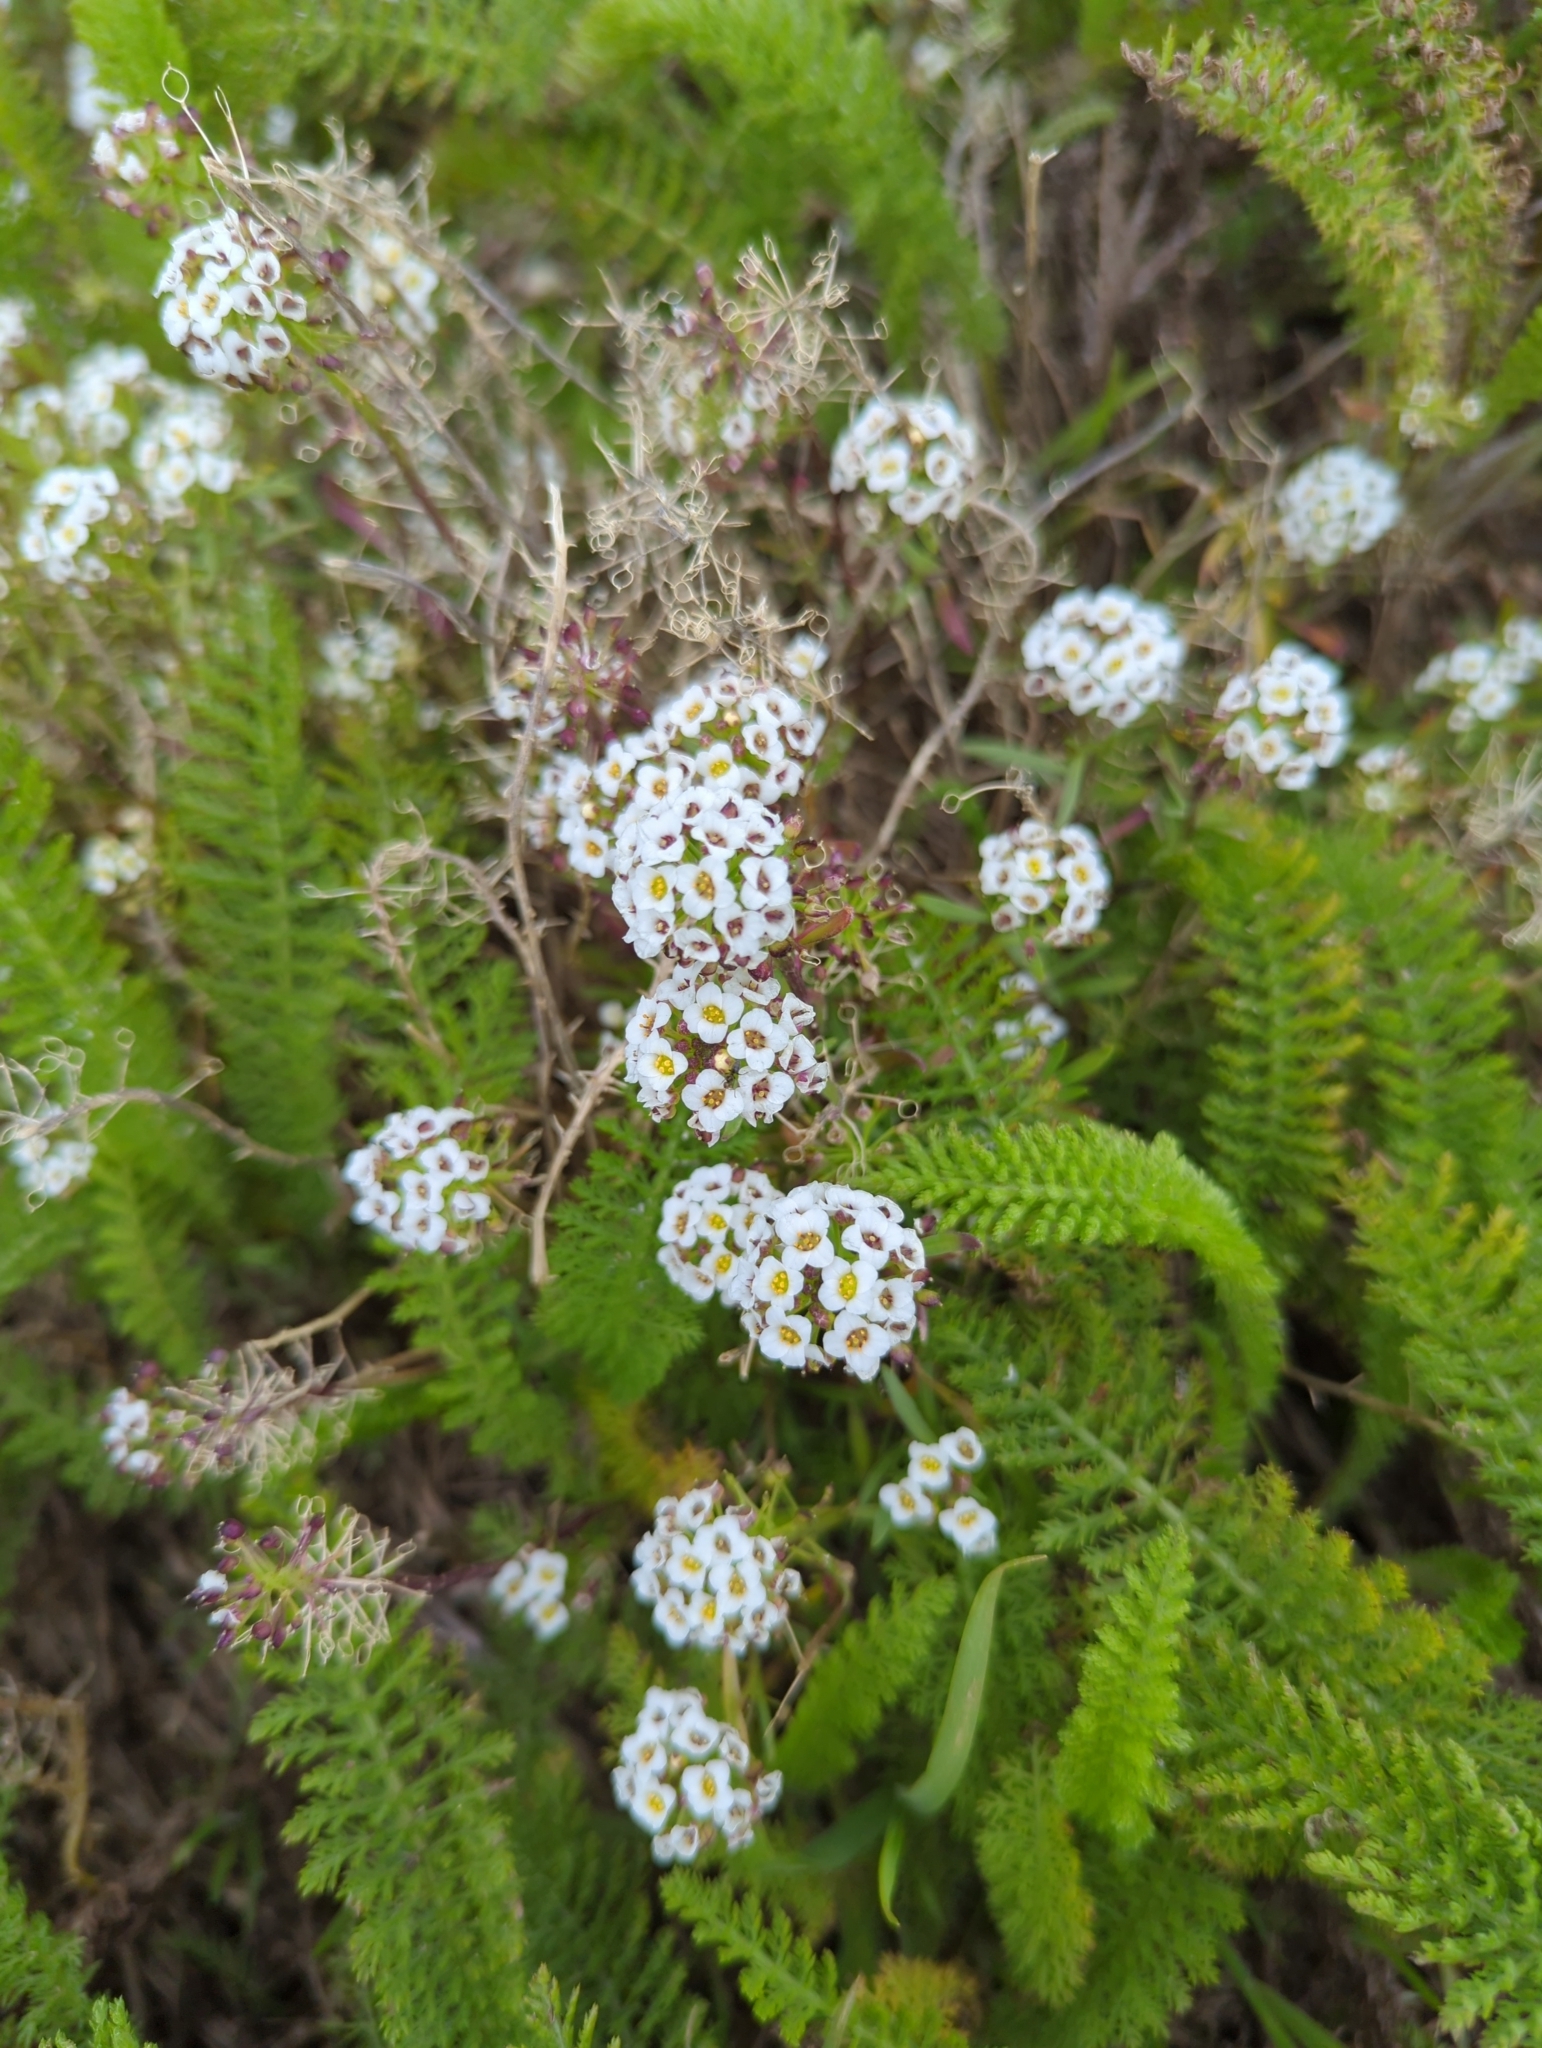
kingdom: Plantae
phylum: Tracheophyta
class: Magnoliopsida
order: Brassicales
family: Brassicaceae
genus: Lobularia
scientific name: Lobularia maritima
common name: Sweet alison
